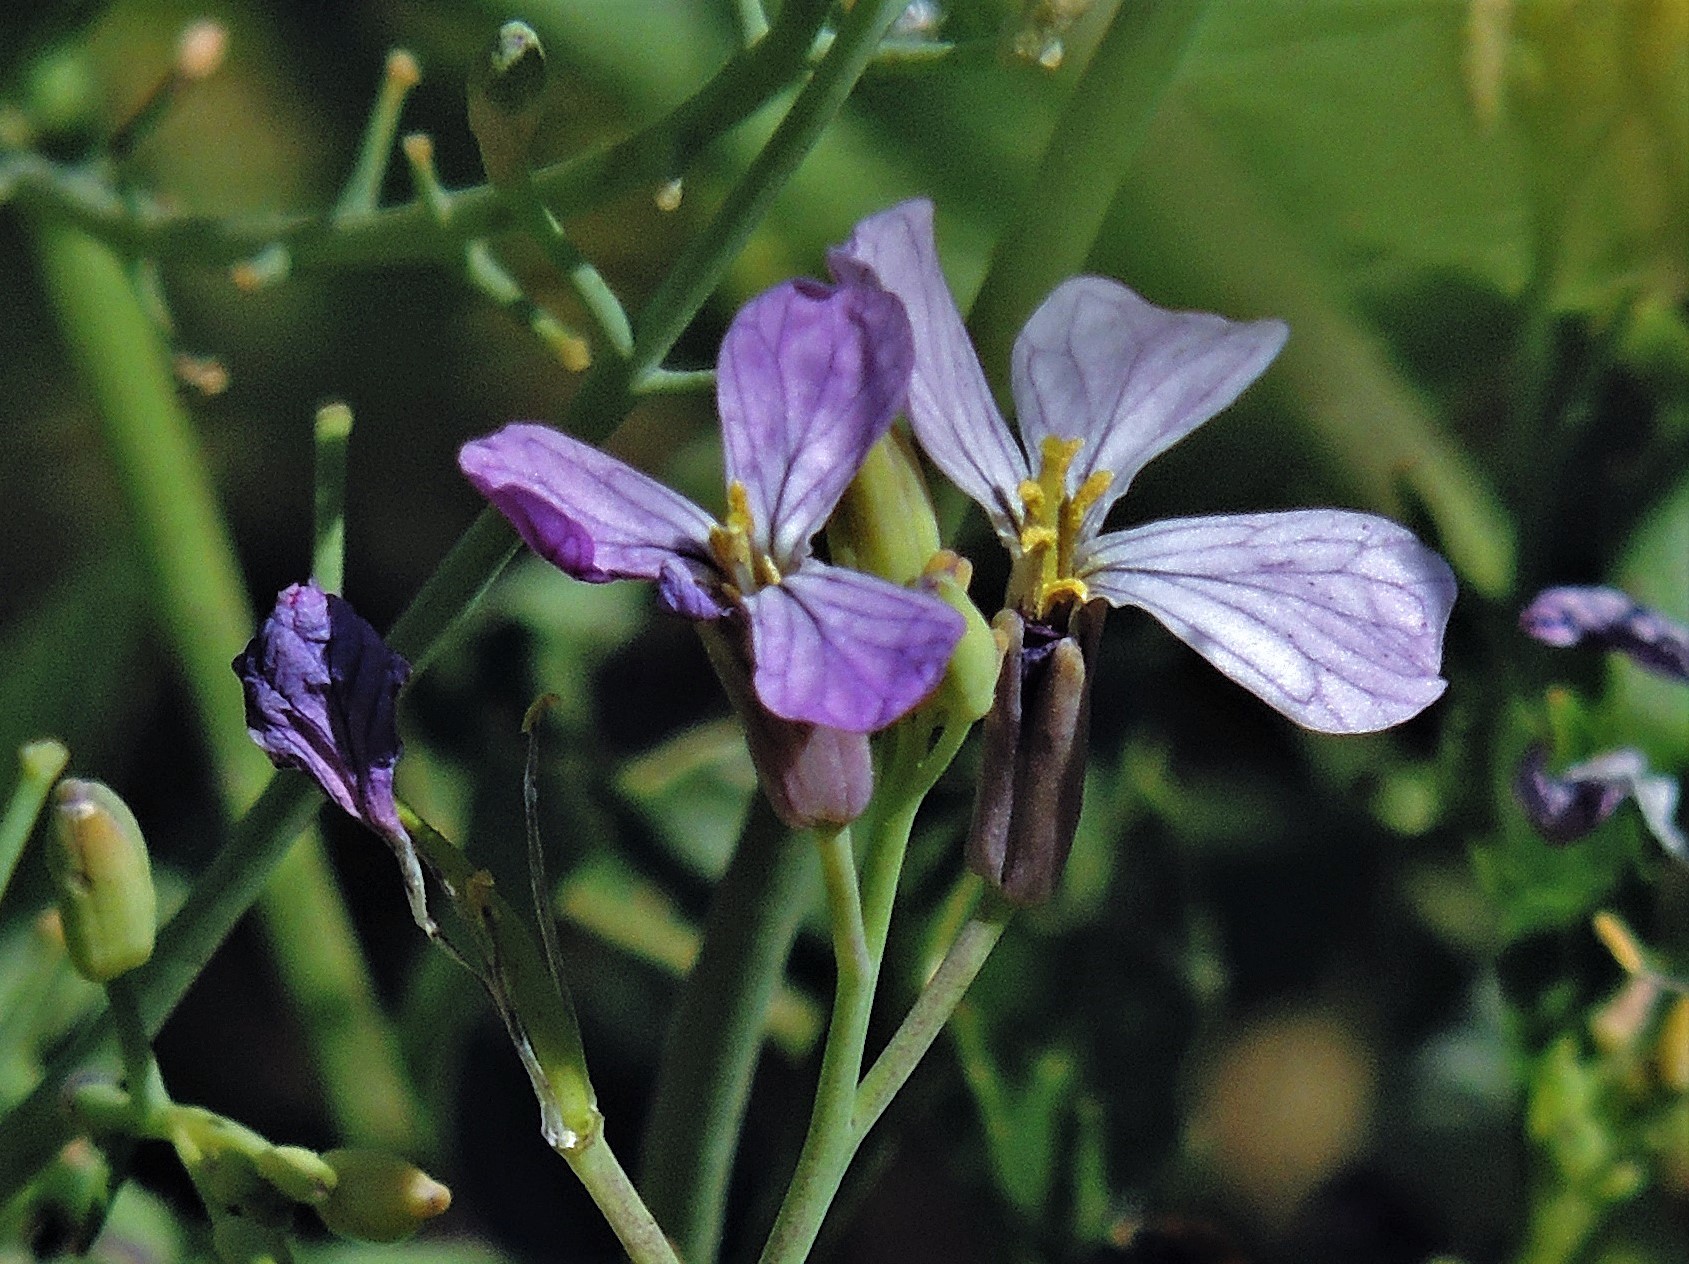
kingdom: Plantae
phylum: Tracheophyta
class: Magnoliopsida
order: Brassicales
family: Brassicaceae
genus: Raphanus
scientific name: Raphanus sativus
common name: Cultivated radish
